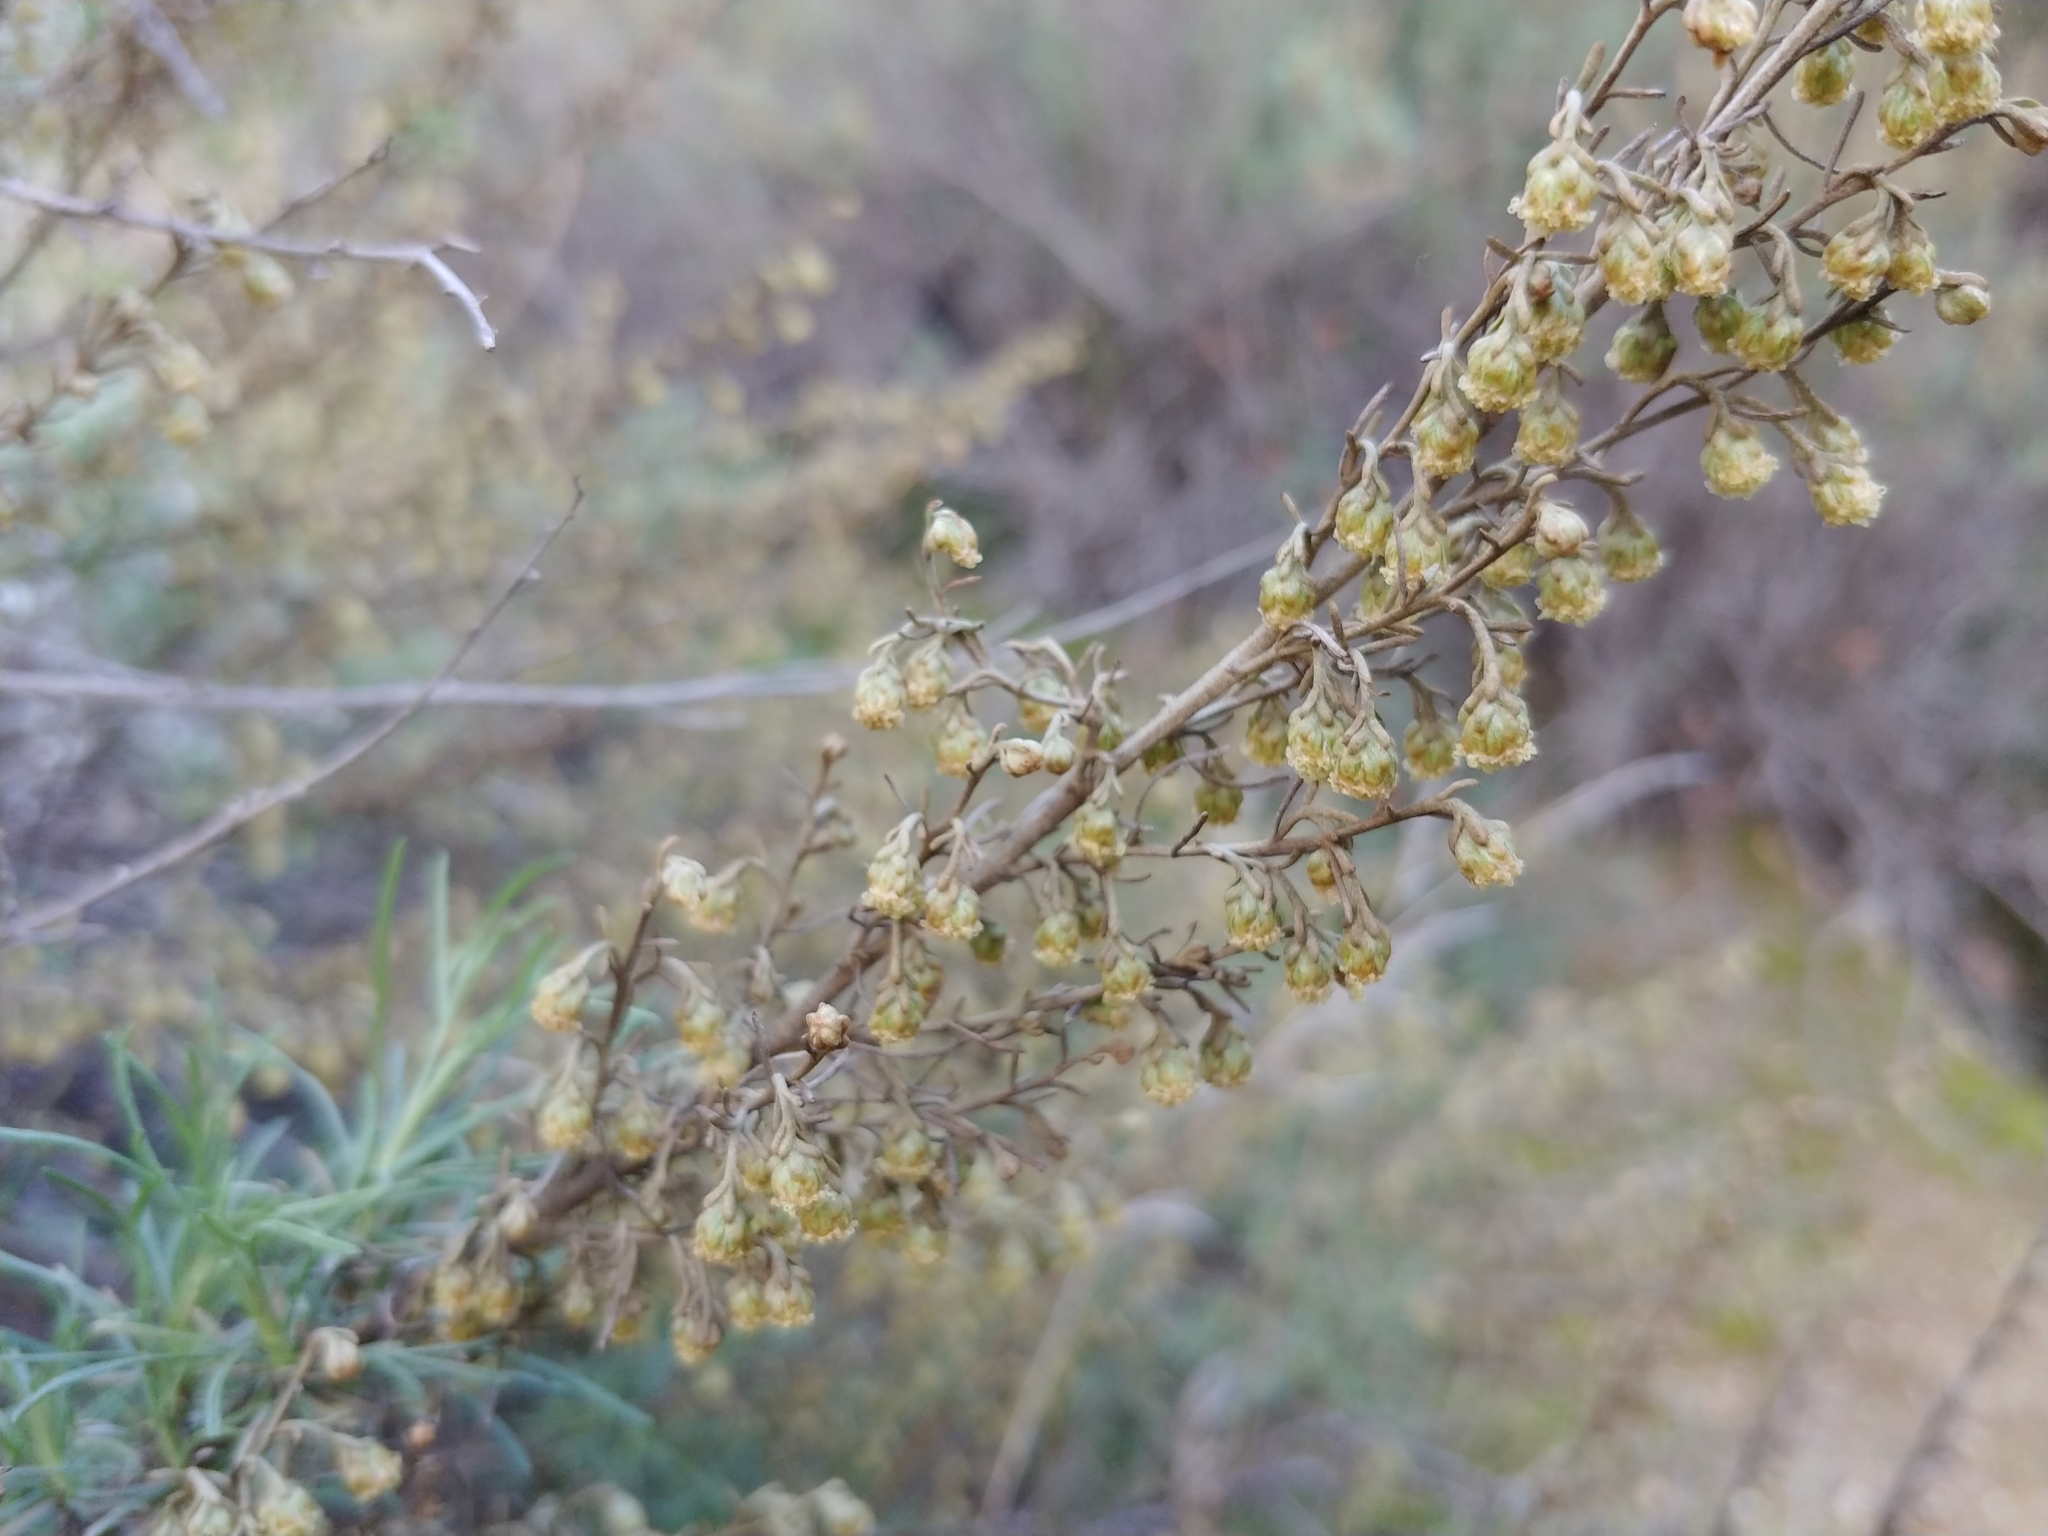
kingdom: Plantae
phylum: Tracheophyta
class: Magnoliopsida
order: Asterales
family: Asteraceae
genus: Artemisia
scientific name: Artemisia californica
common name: California sagebrush
